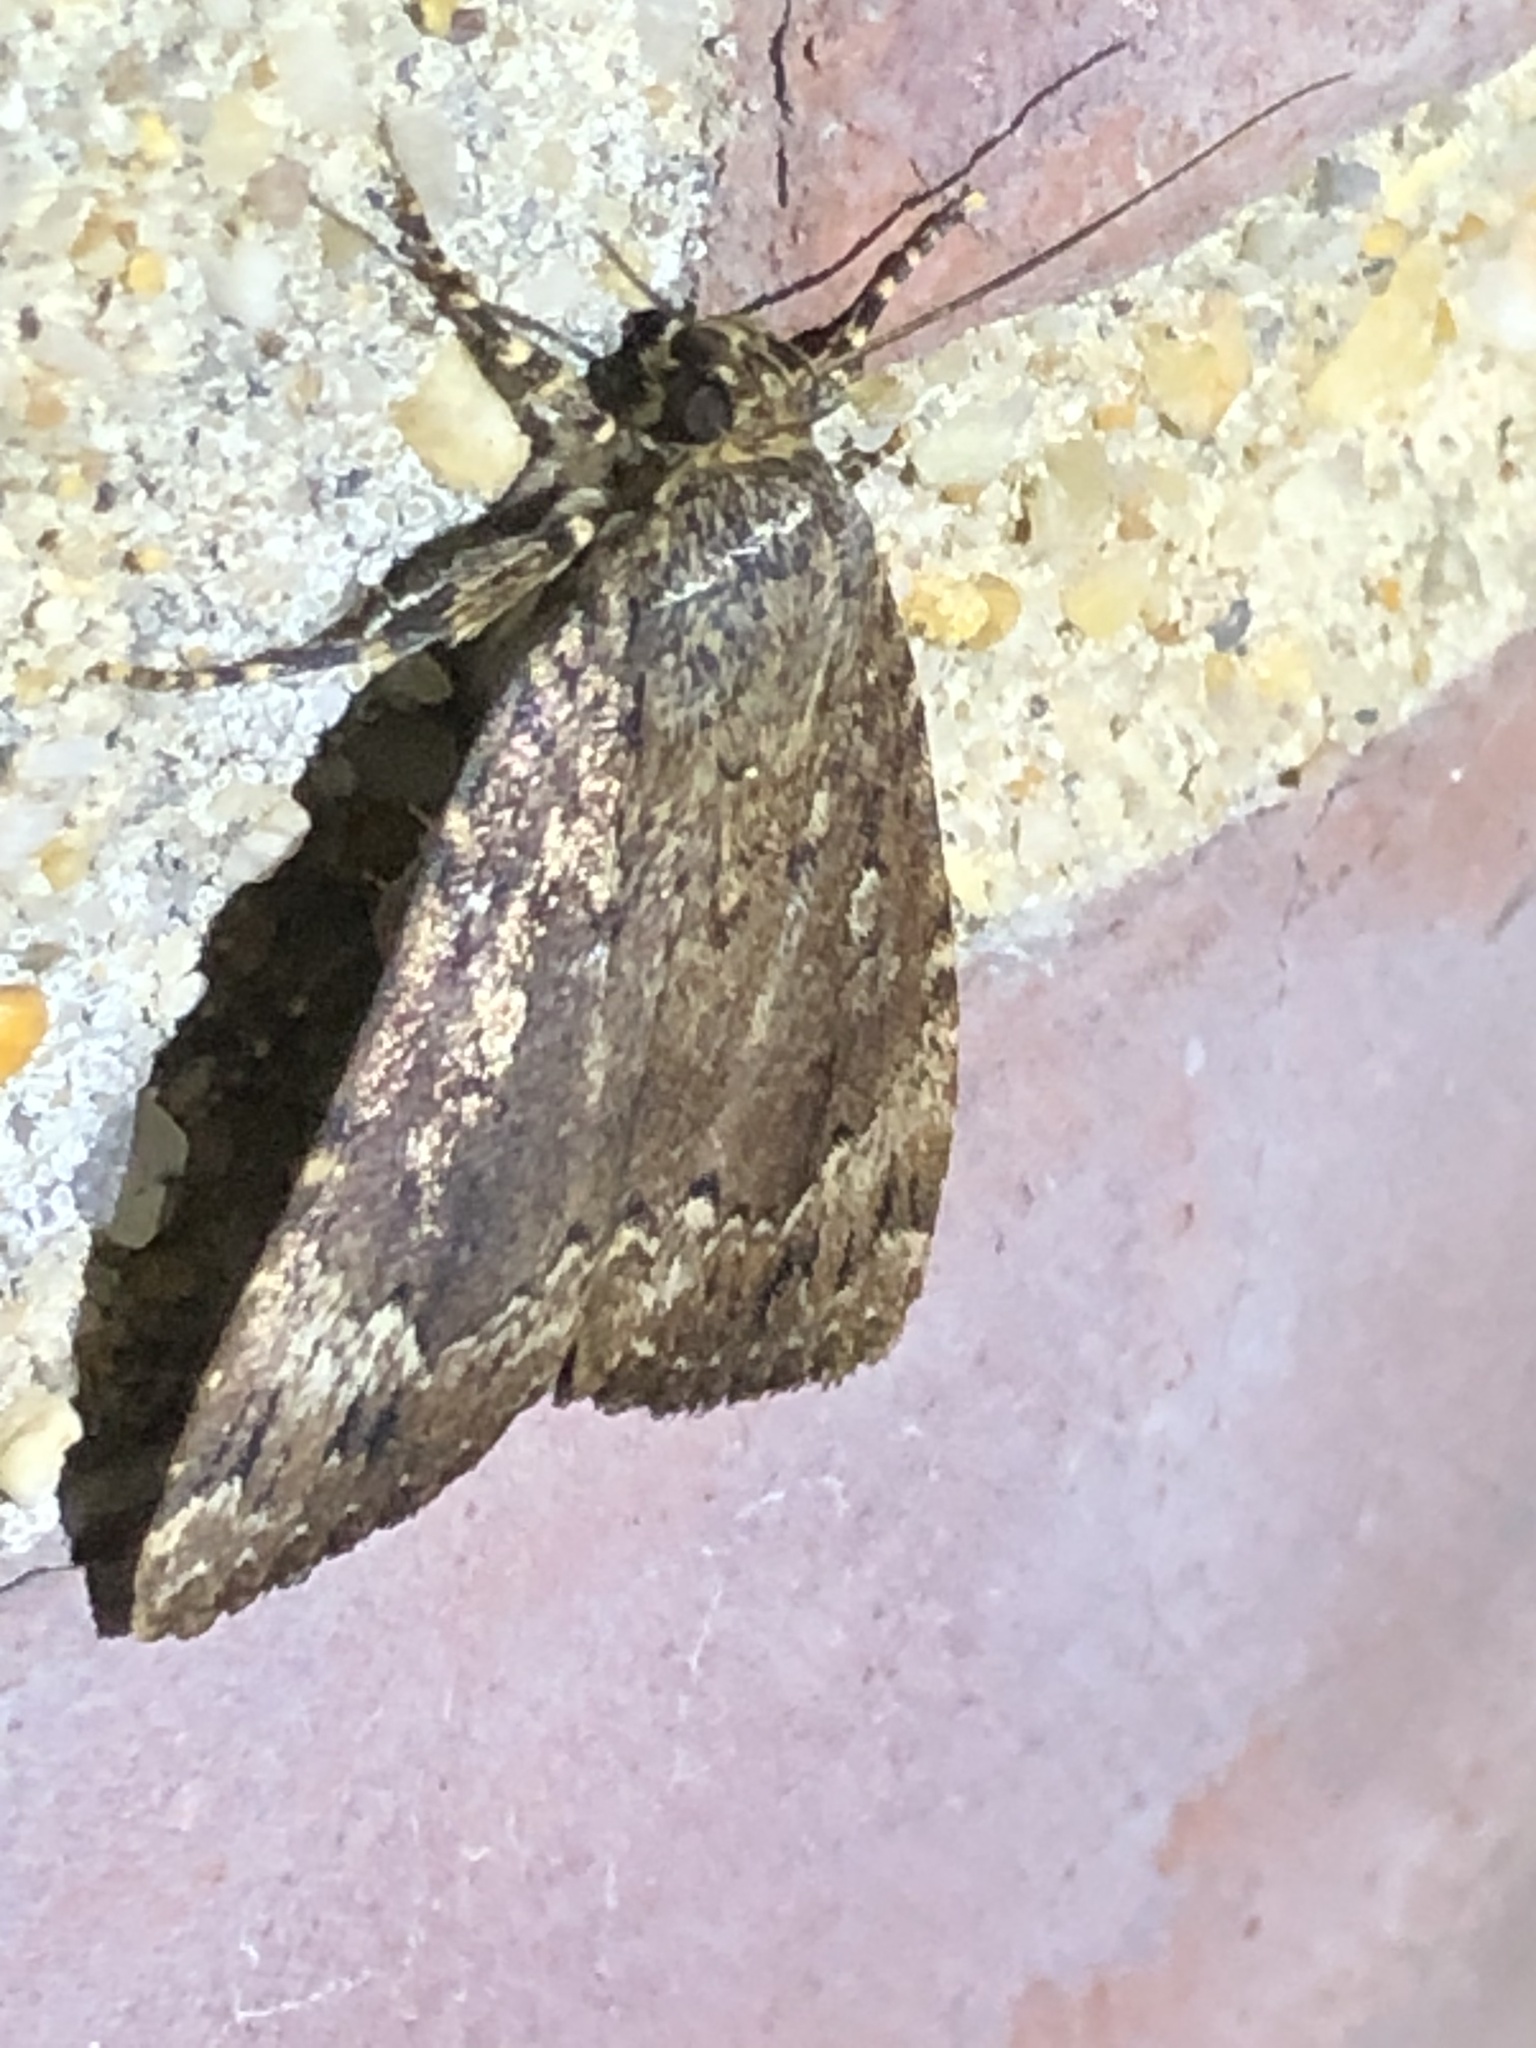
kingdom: Animalia
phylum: Arthropoda
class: Insecta
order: Lepidoptera
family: Noctuidae
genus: Amphipyra
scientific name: Amphipyra pyramidoides
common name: American copper underwing
